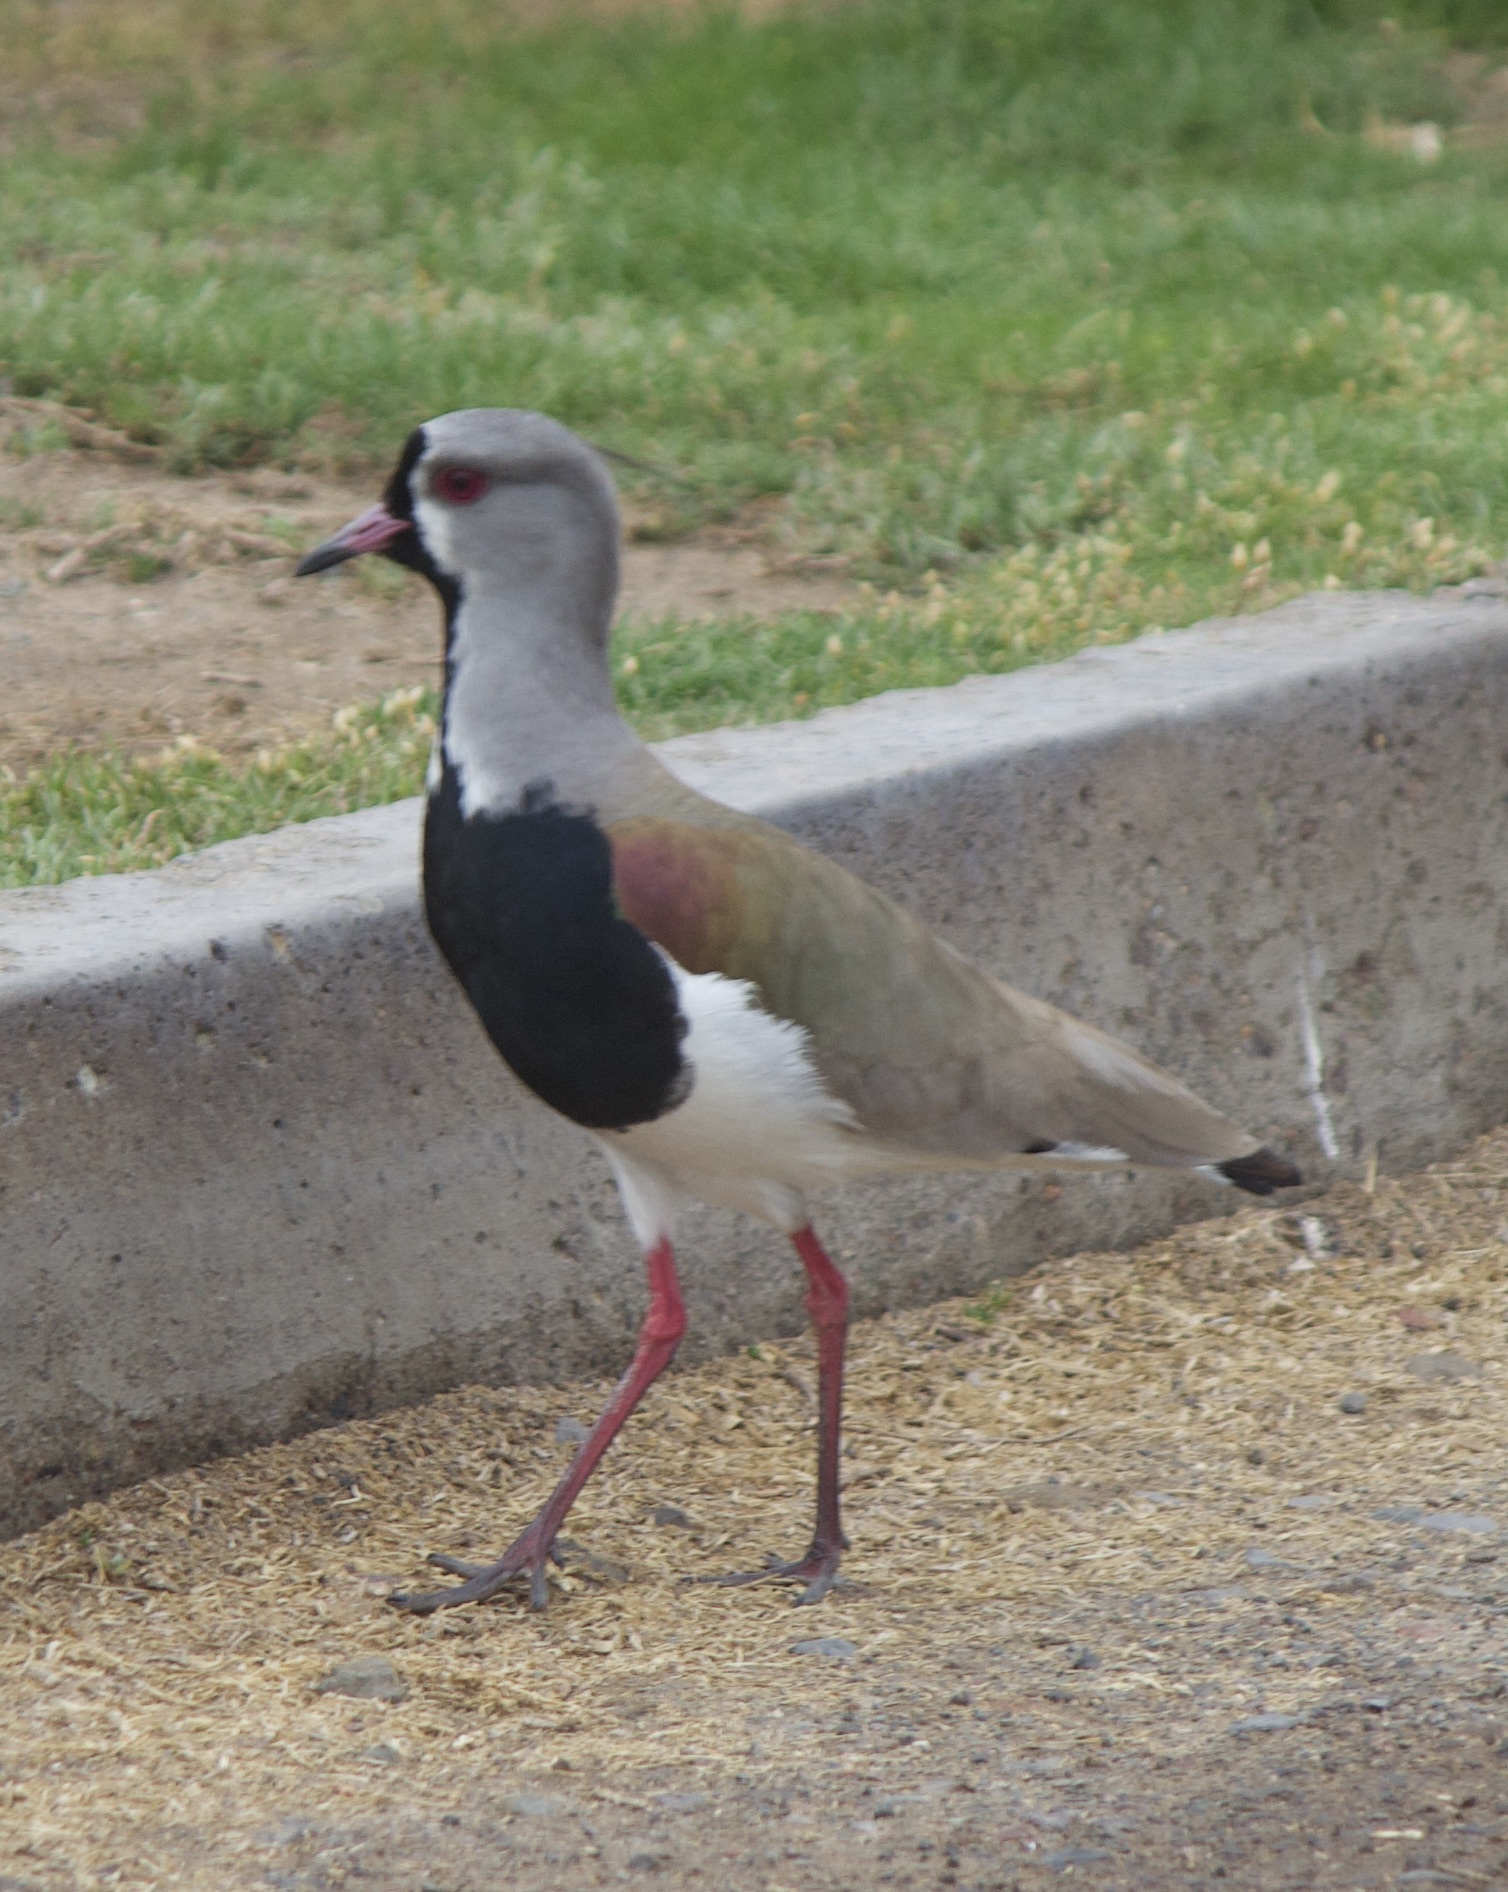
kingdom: Animalia
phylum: Chordata
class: Aves
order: Charadriiformes
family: Charadriidae
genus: Vanellus
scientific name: Vanellus chilensis
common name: Southern lapwing
